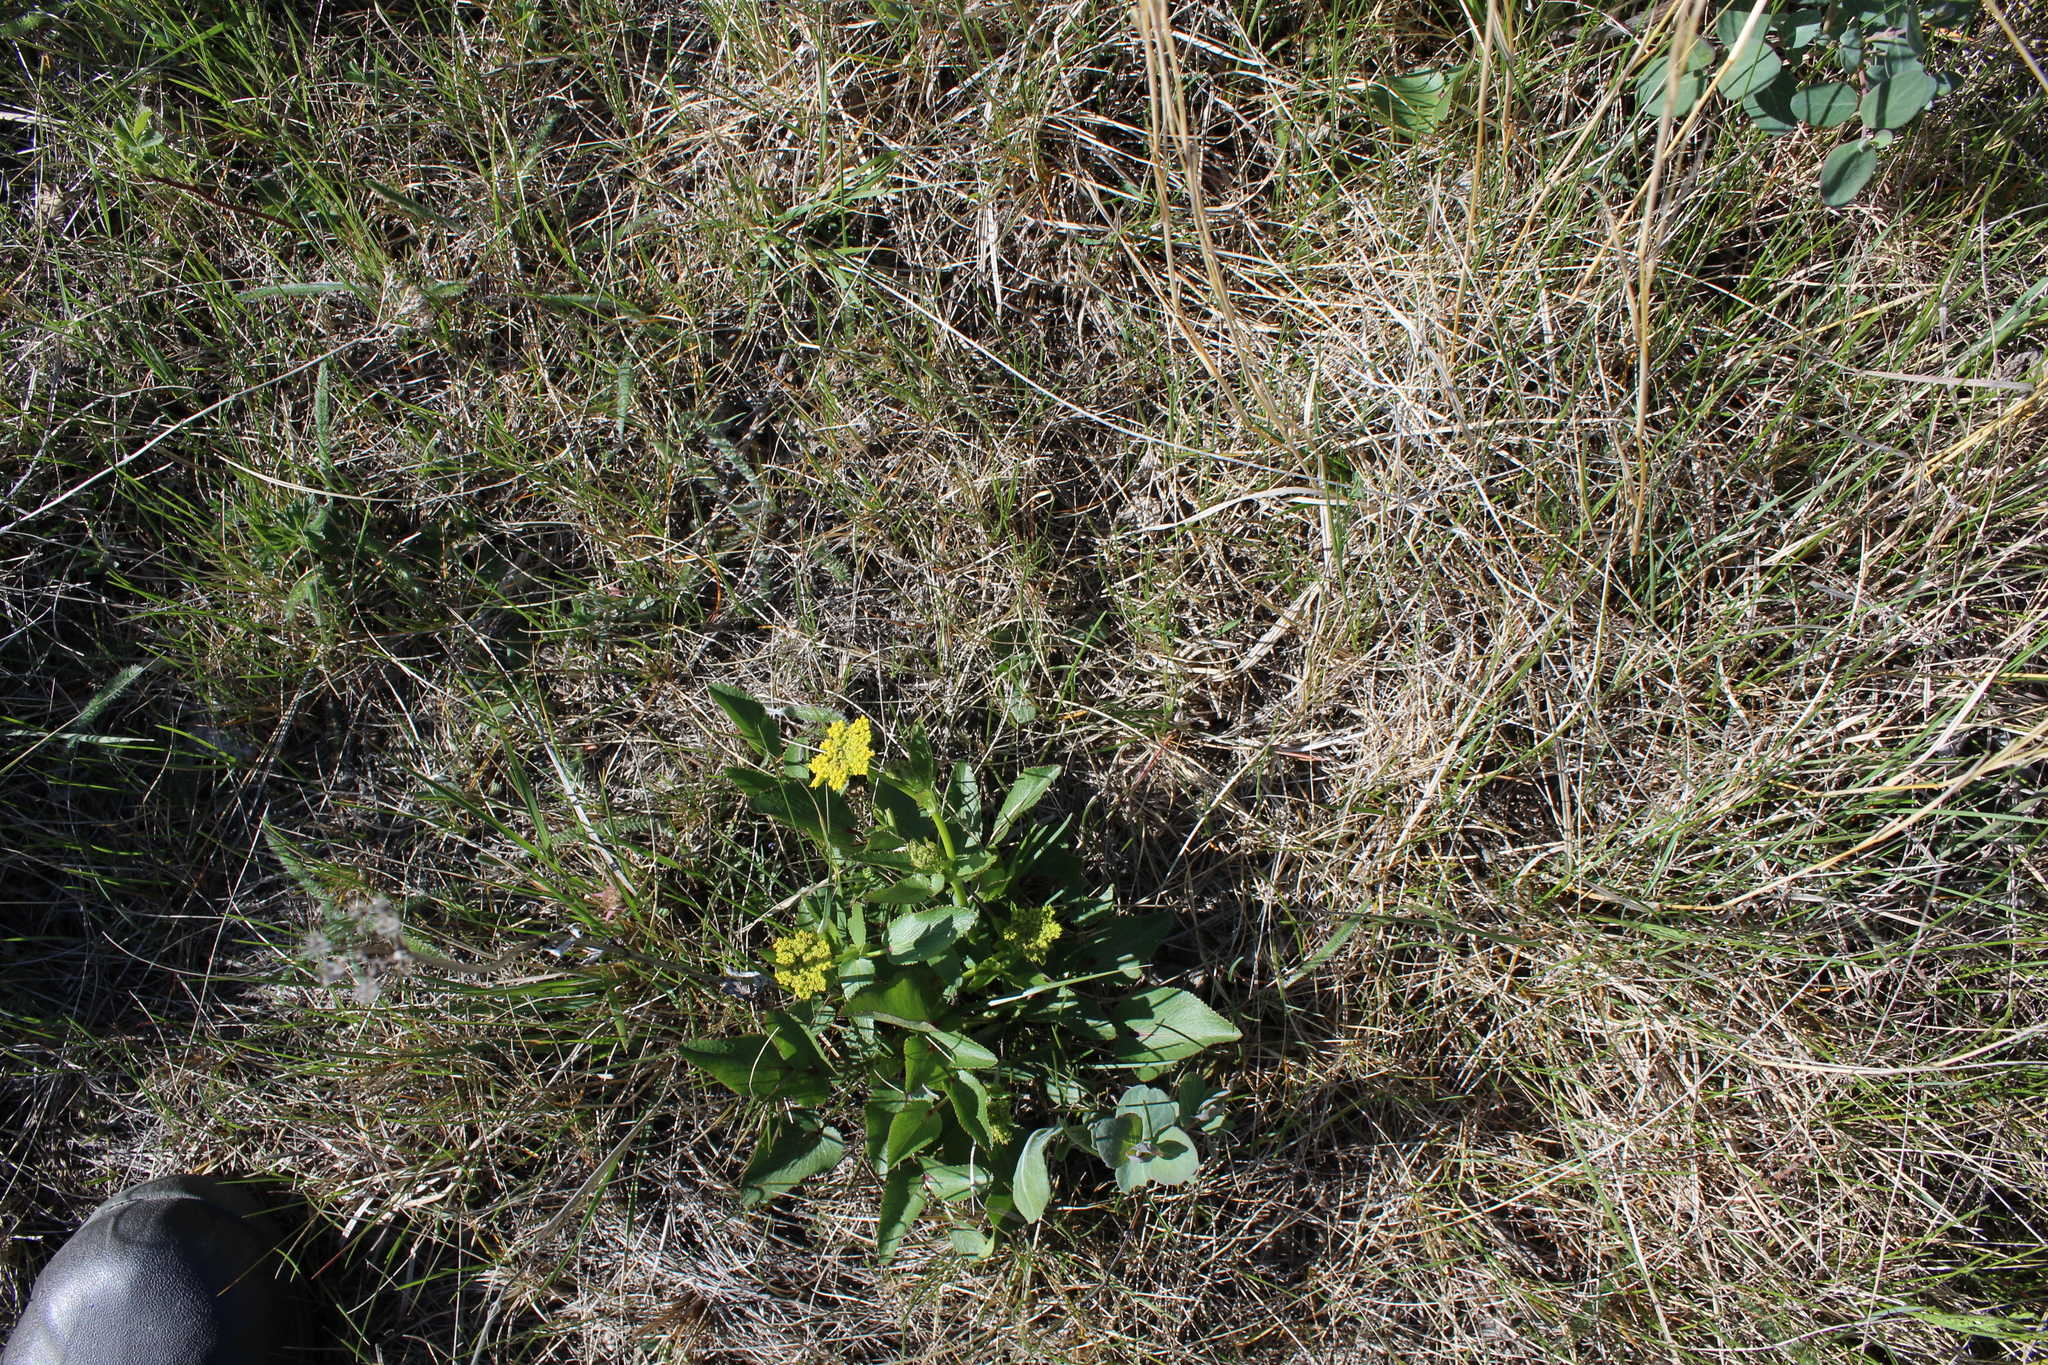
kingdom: Plantae
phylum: Tracheophyta
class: Magnoliopsida
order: Apiales
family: Apiaceae
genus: Zizia
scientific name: Zizia aptera
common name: Heart-leaved alexanders
